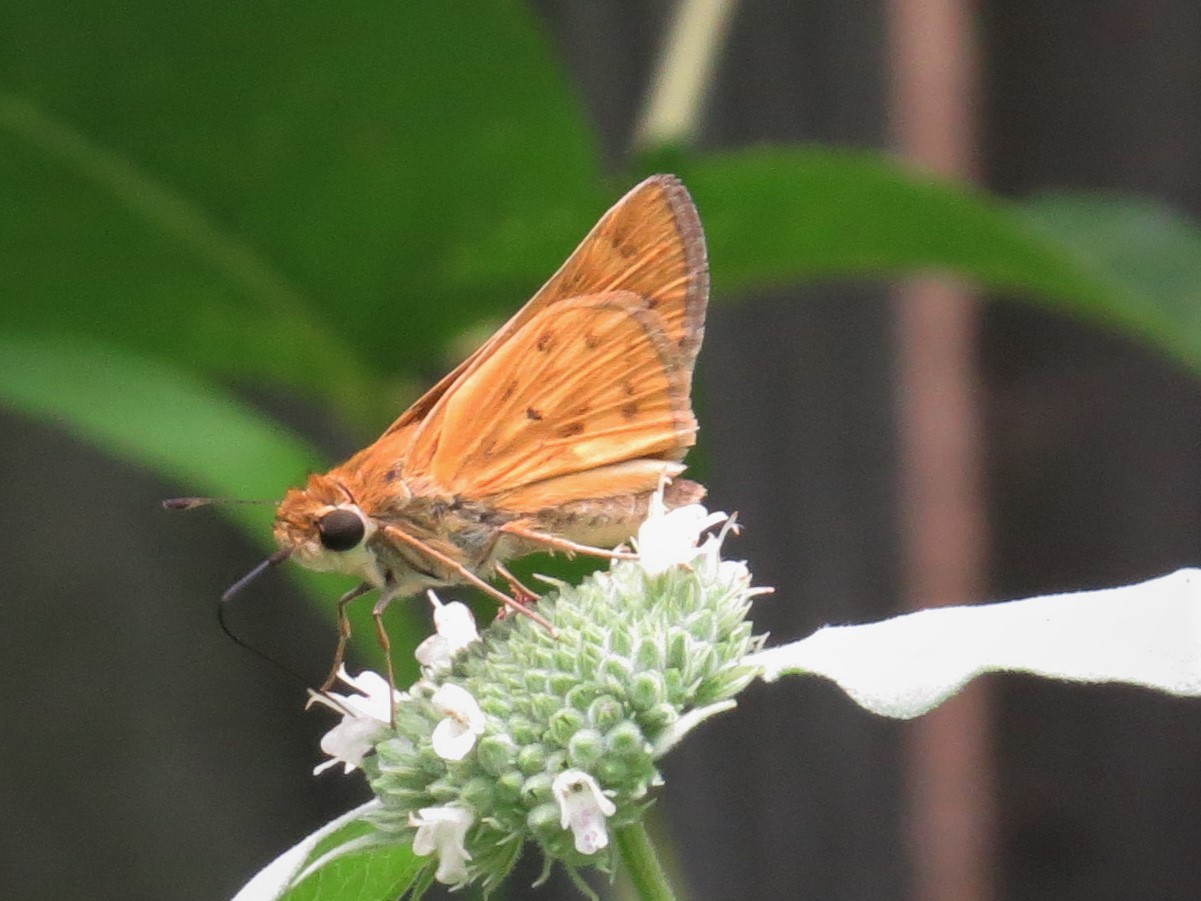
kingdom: Animalia
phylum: Arthropoda
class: Insecta
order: Lepidoptera
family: Hesperiidae
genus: Hylephila
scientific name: Hylephila phyleus
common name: Fiery skipper
